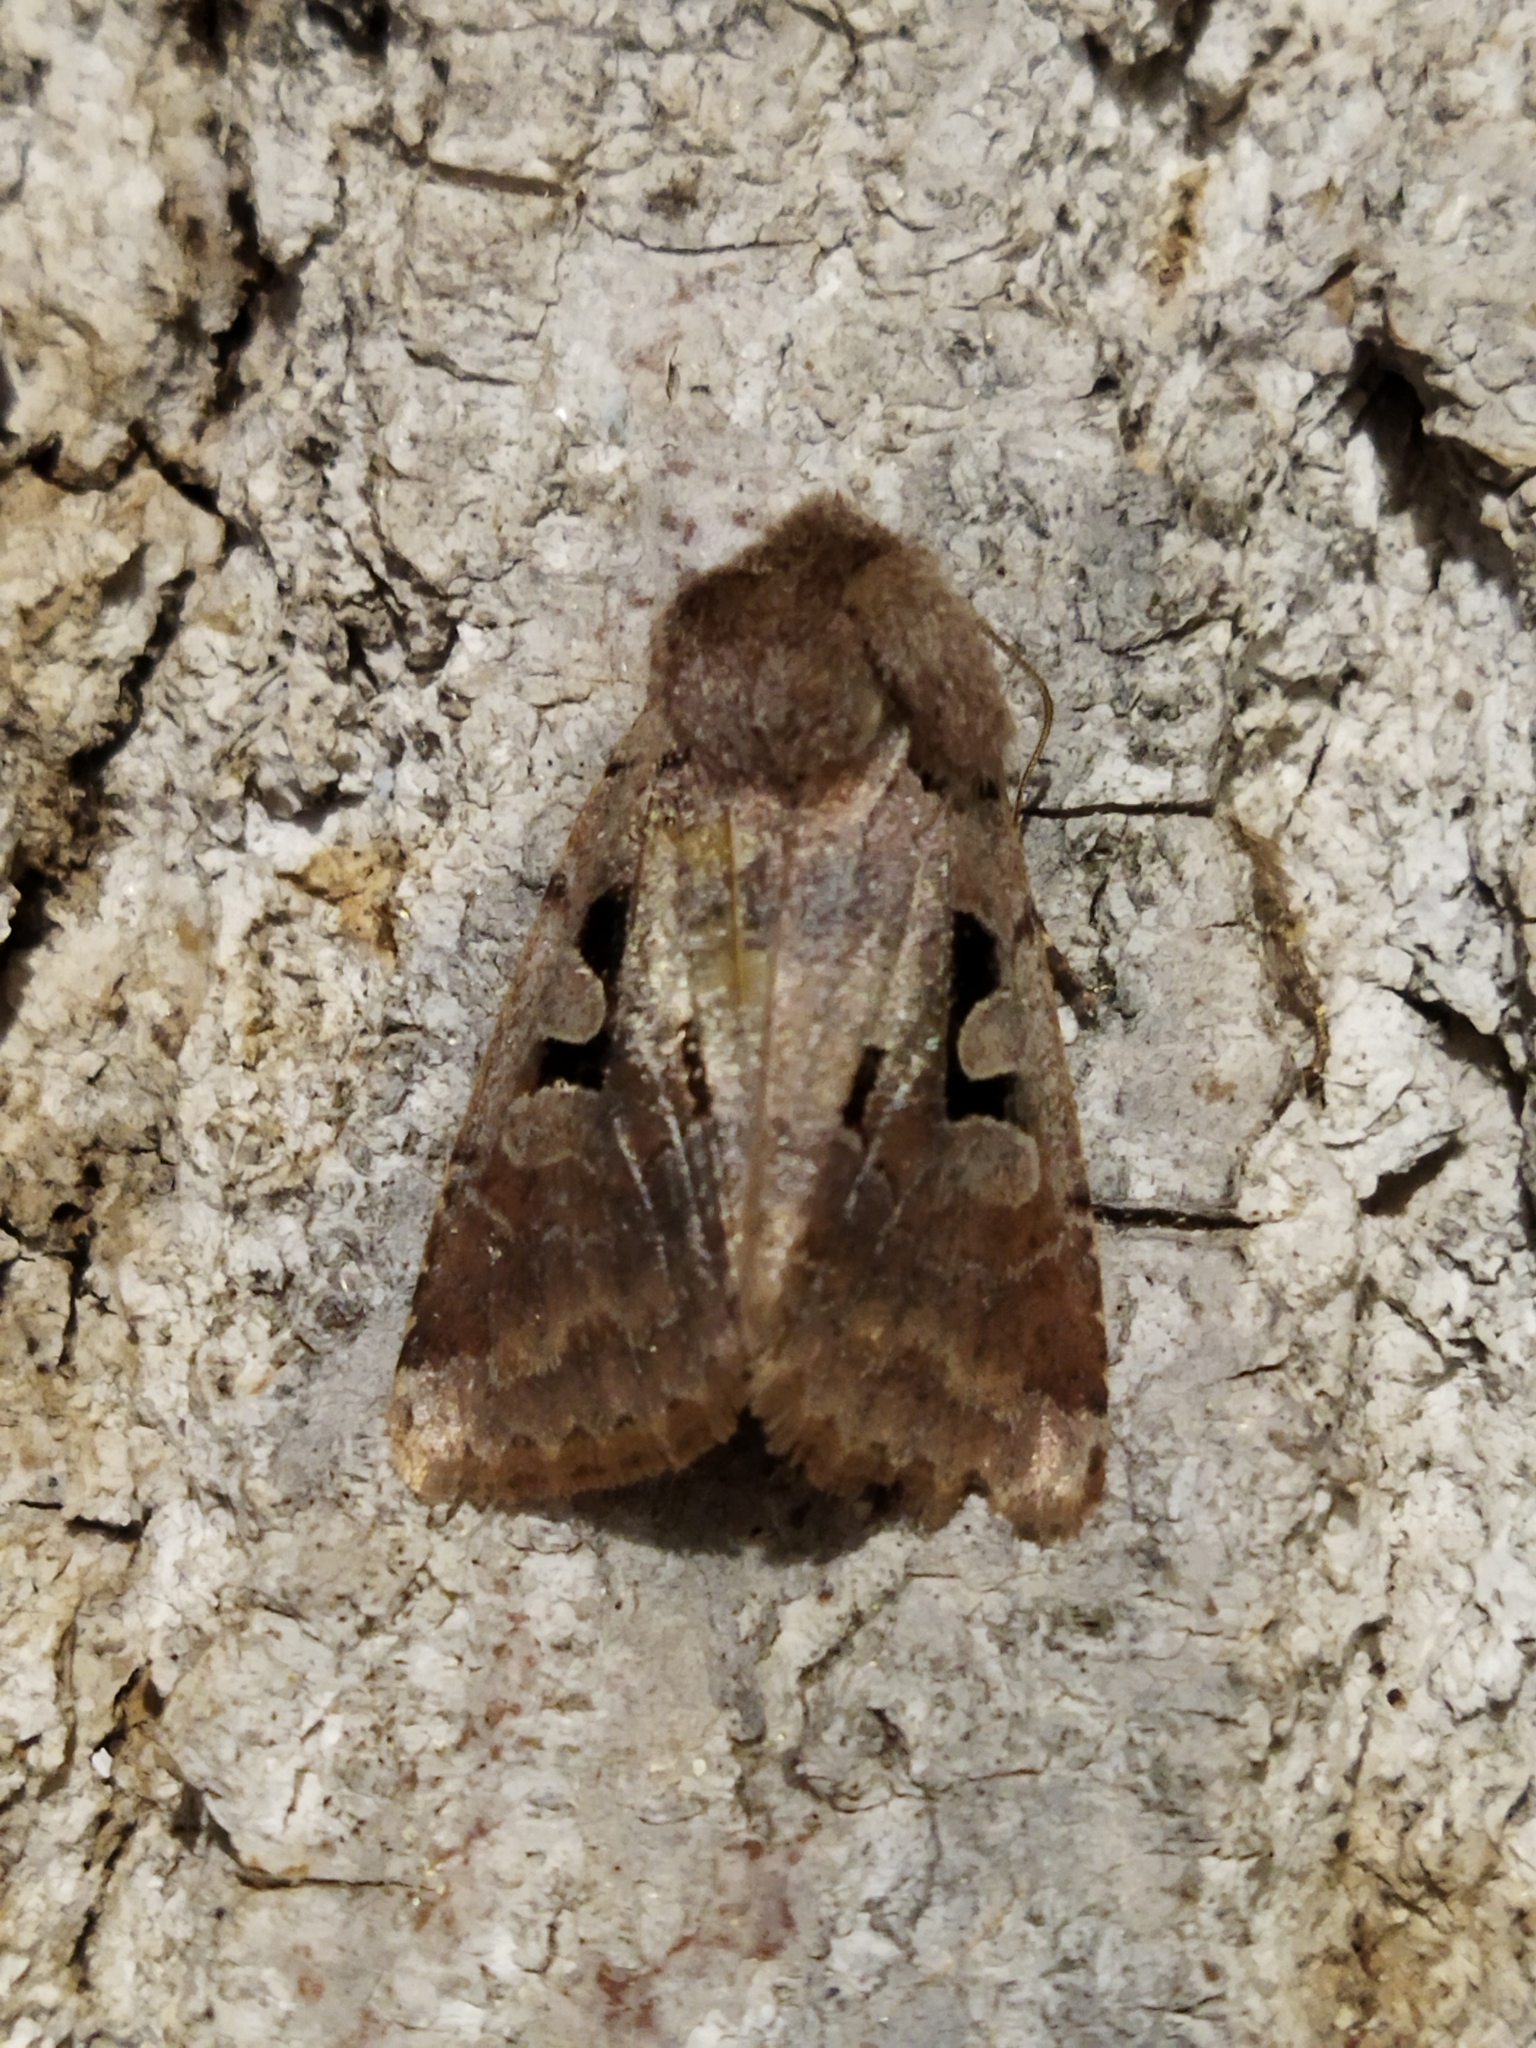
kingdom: Animalia
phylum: Arthropoda
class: Insecta
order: Lepidoptera
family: Noctuidae
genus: Orthosia
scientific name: Orthosia gothica
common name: Hebrew character
